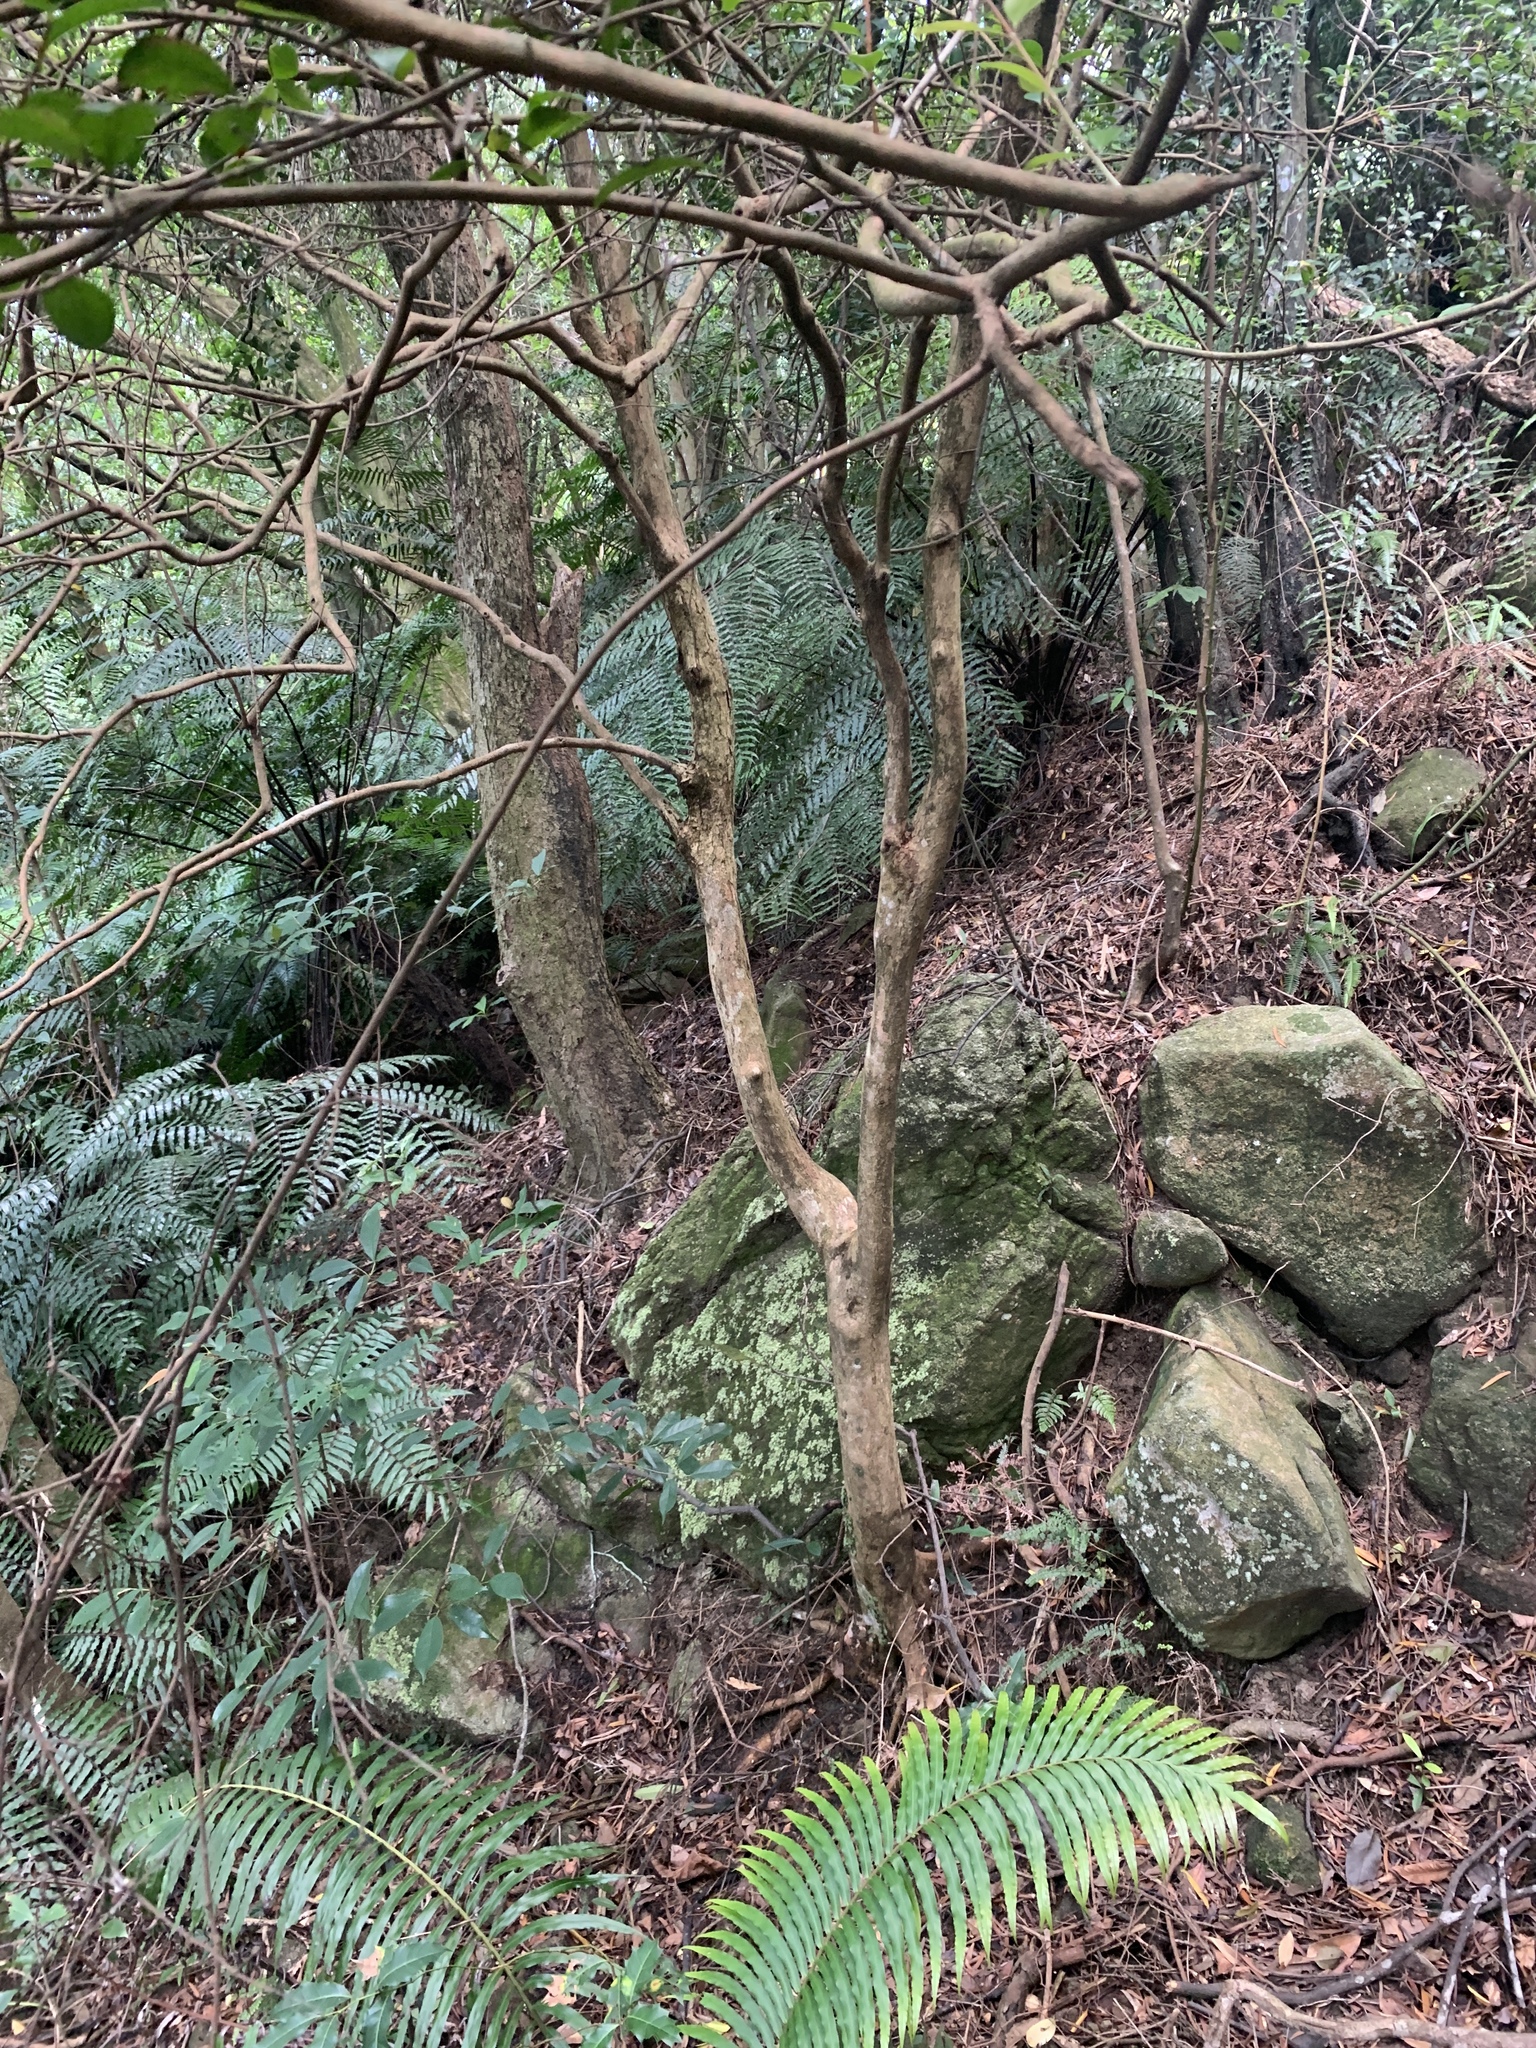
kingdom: Plantae
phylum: Tracheophyta
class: Magnoliopsida
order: Myrtales
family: Myrtaceae
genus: Syzygium
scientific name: Syzygium formosanum
